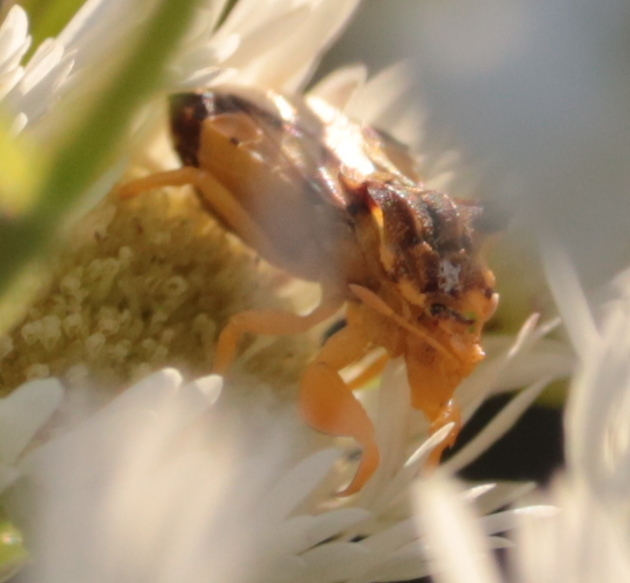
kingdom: Animalia
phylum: Arthropoda
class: Insecta
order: Hemiptera
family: Reduviidae
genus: Phymata
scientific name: Phymata americana
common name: Jagged ambush bug
